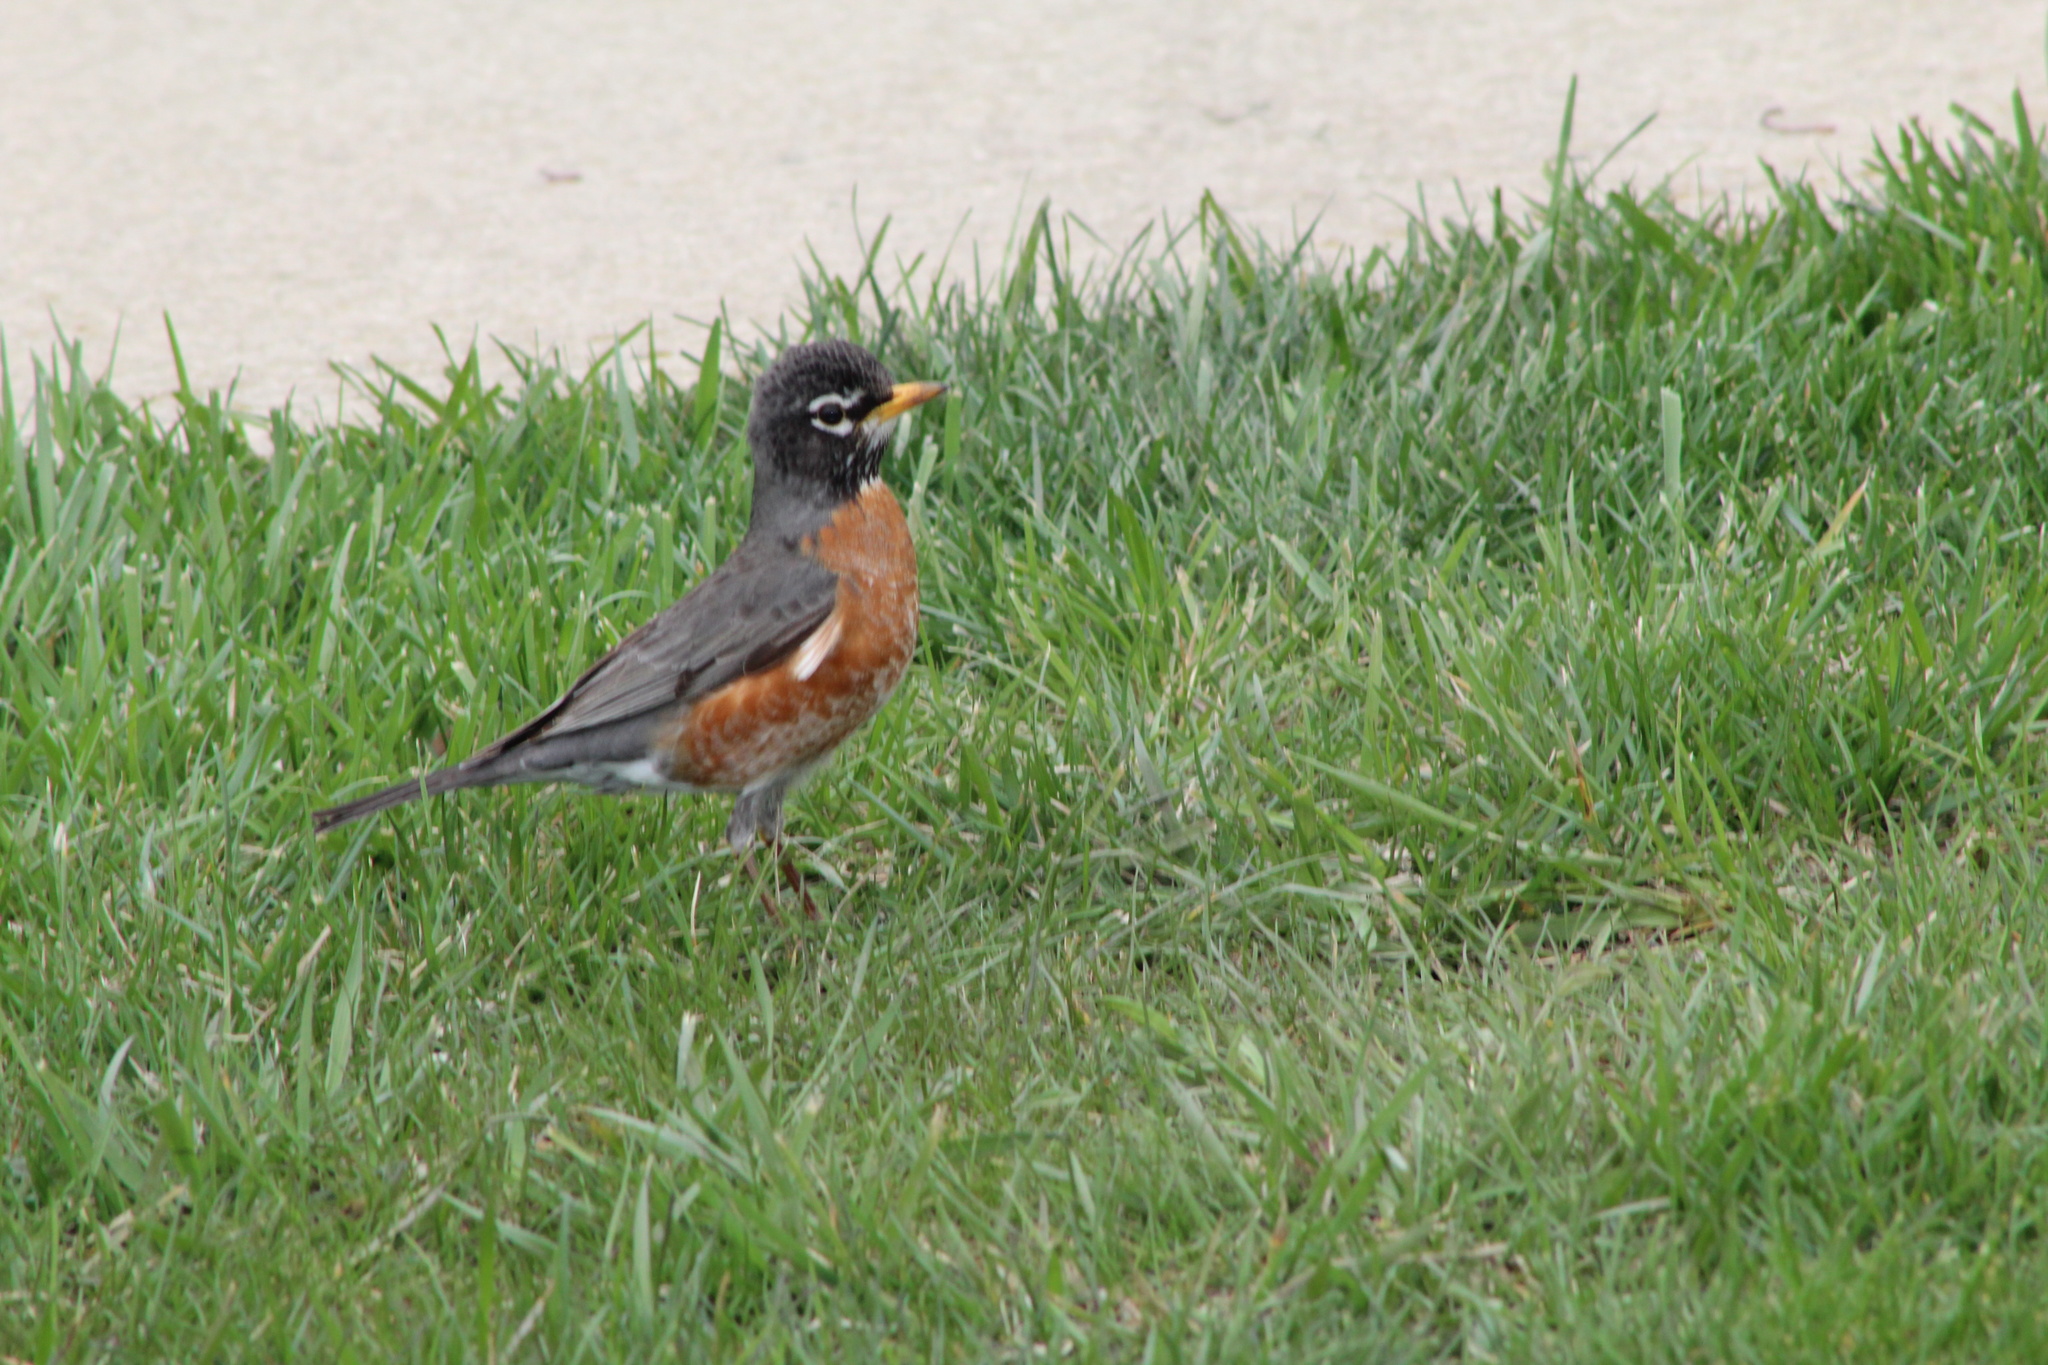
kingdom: Animalia
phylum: Chordata
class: Aves
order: Passeriformes
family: Turdidae
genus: Turdus
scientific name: Turdus migratorius
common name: American robin
